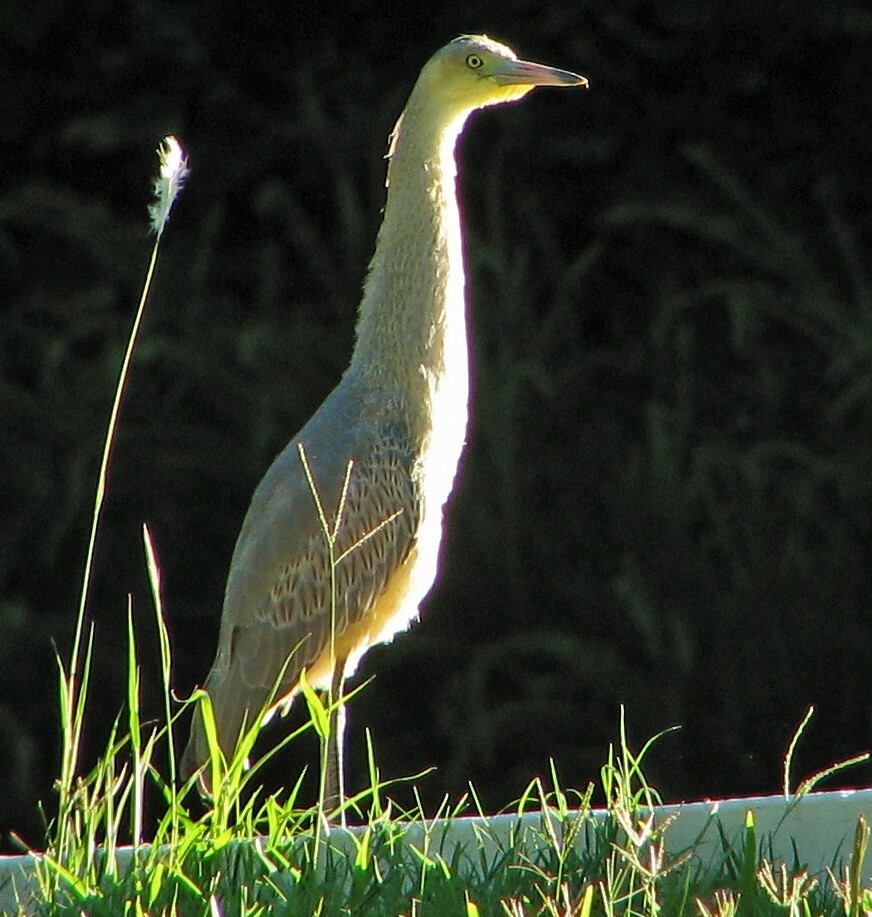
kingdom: Animalia
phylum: Chordata
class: Aves
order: Pelecaniformes
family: Ardeidae
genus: Syrigma
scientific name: Syrigma sibilatrix
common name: Whistling heron
